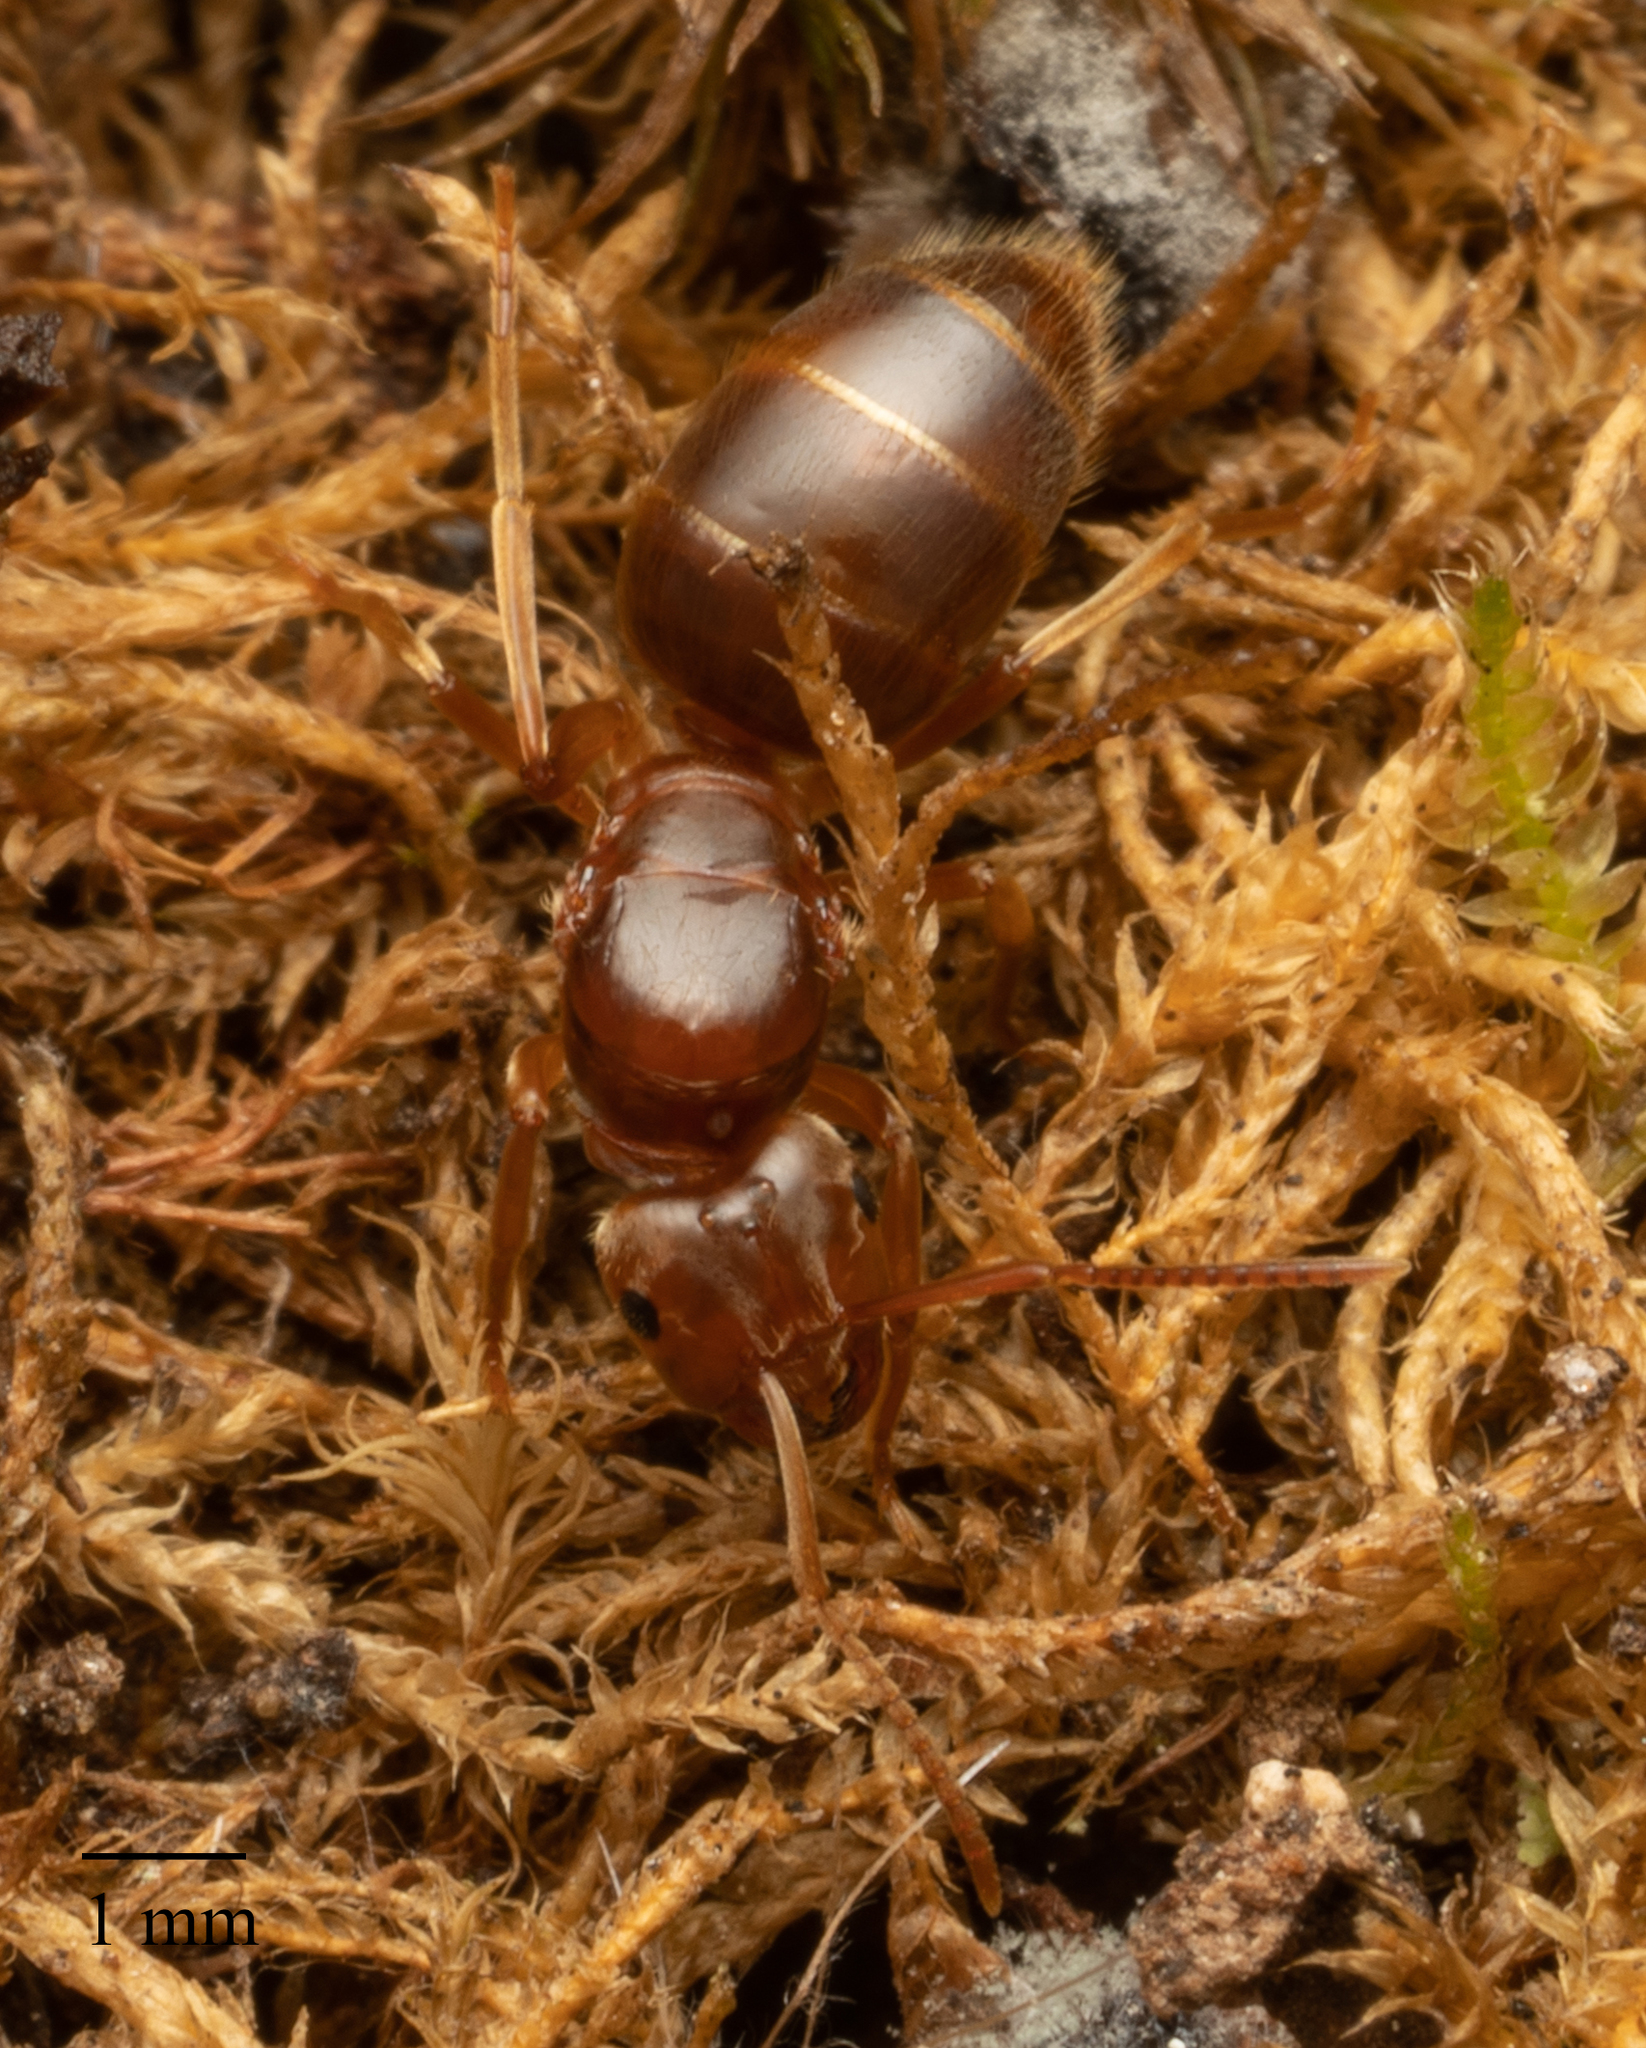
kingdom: Animalia
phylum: Arthropoda
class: Insecta
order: Hymenoptera
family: Formicidae
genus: Lasius
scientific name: Lasius subumbratus
